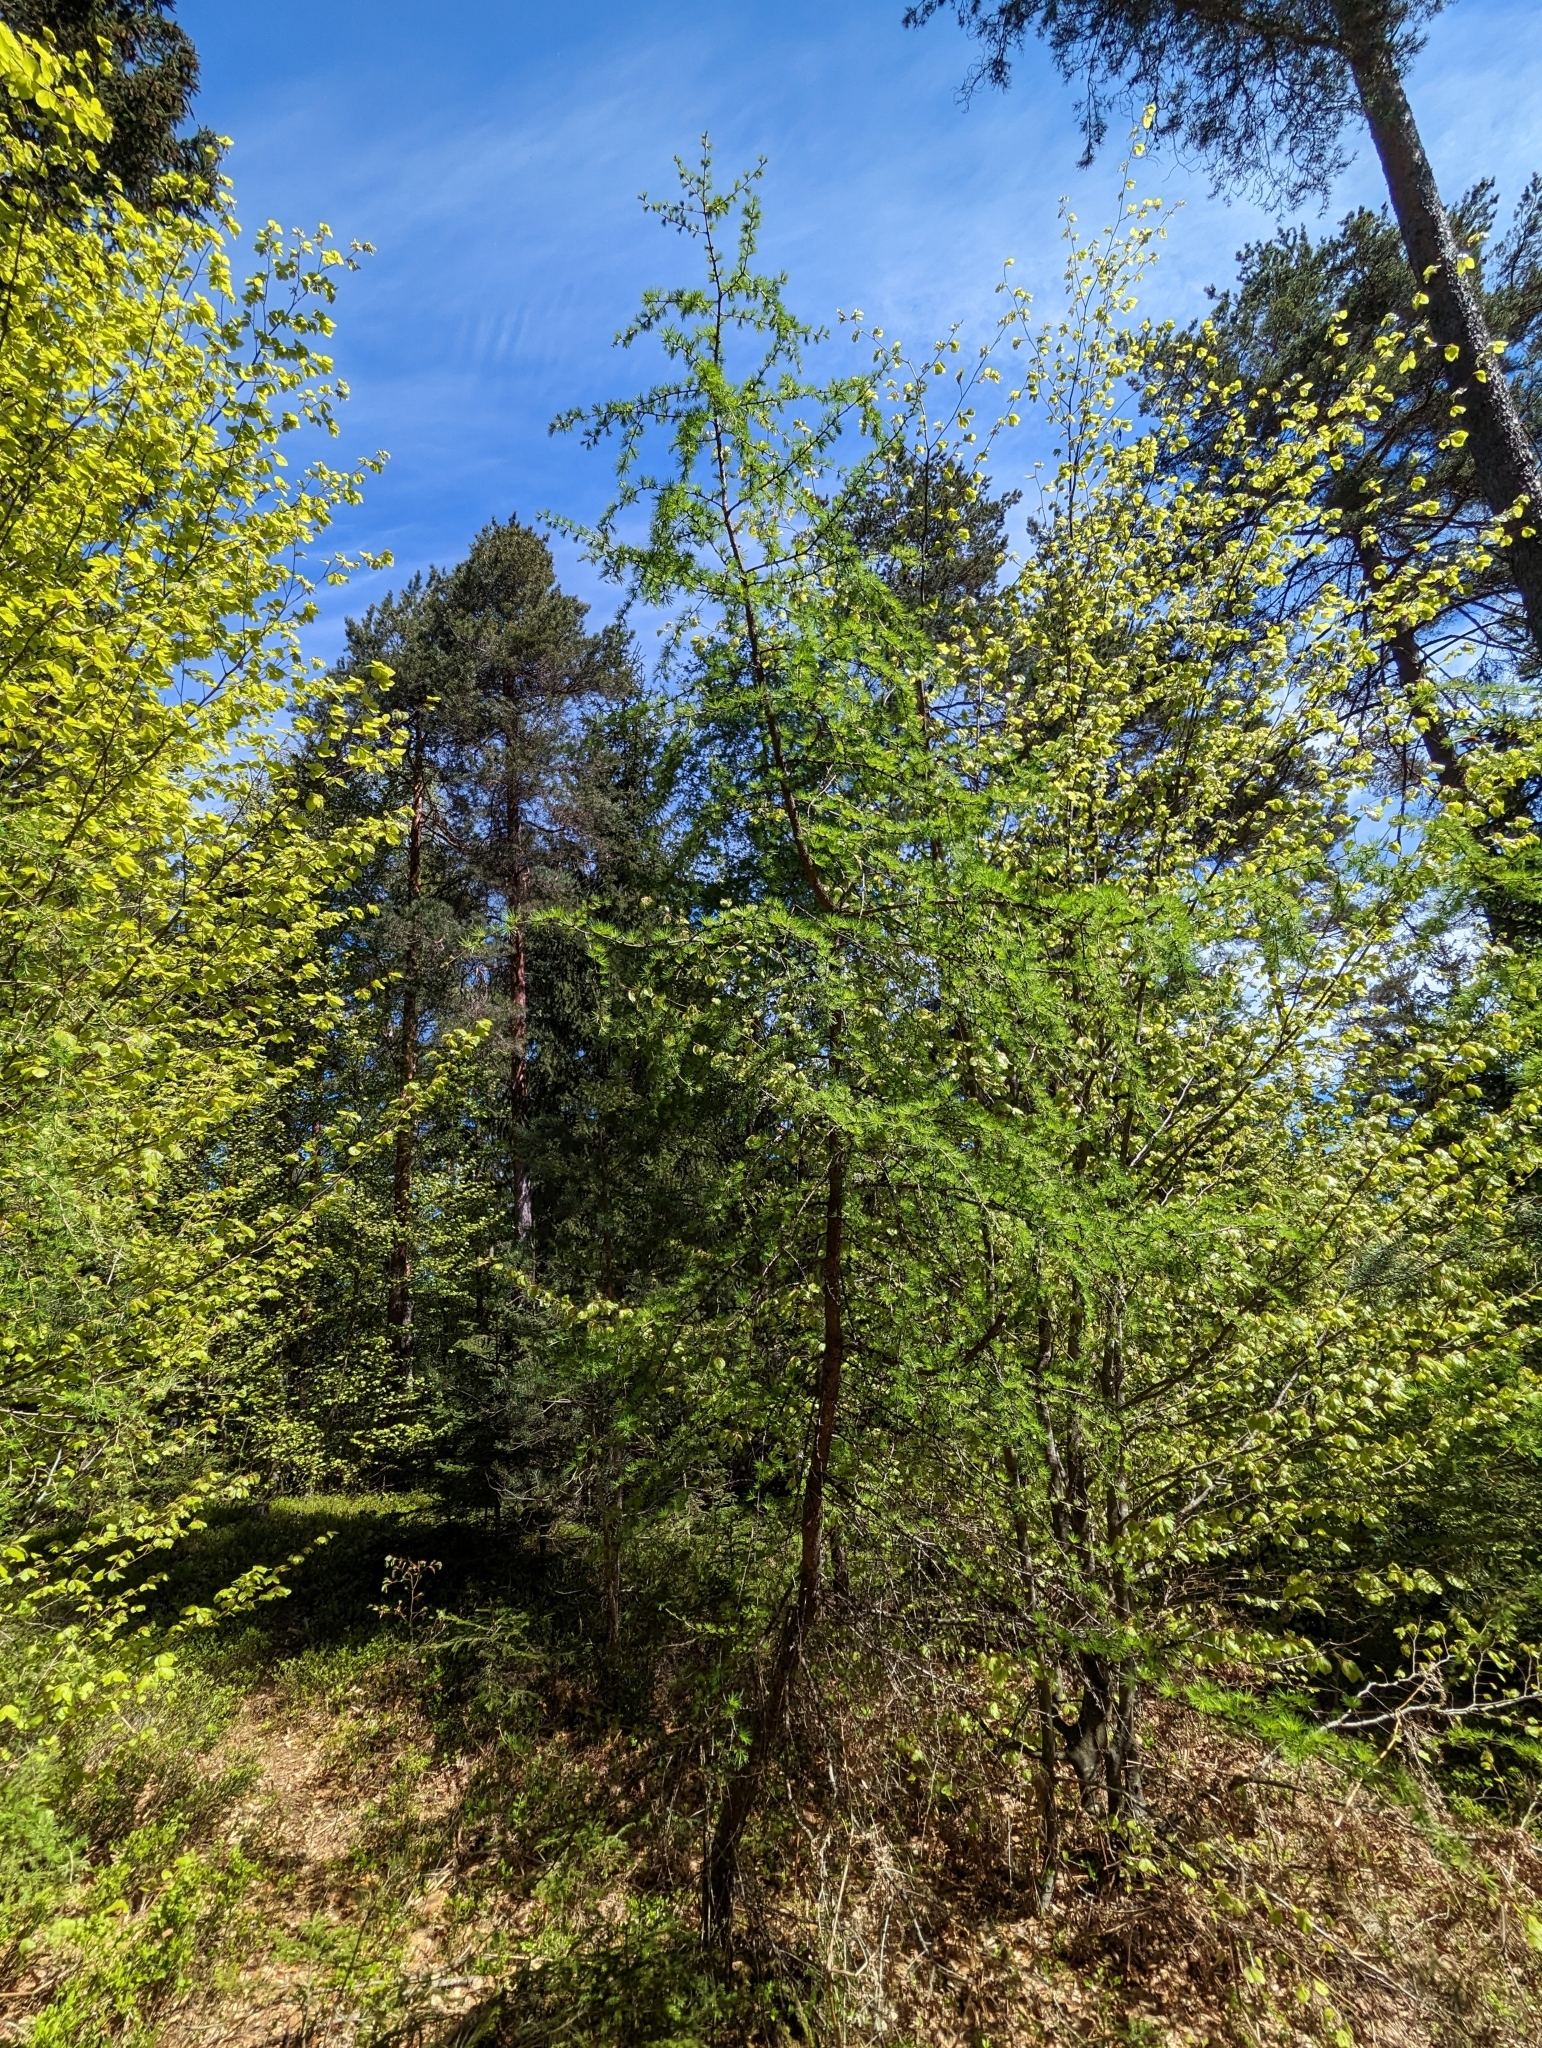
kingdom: Plantae
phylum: Tracheophyta
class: Pinopsida
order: Pinales
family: Pinaceae
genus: Larix
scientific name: Larix decidua
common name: European larch
